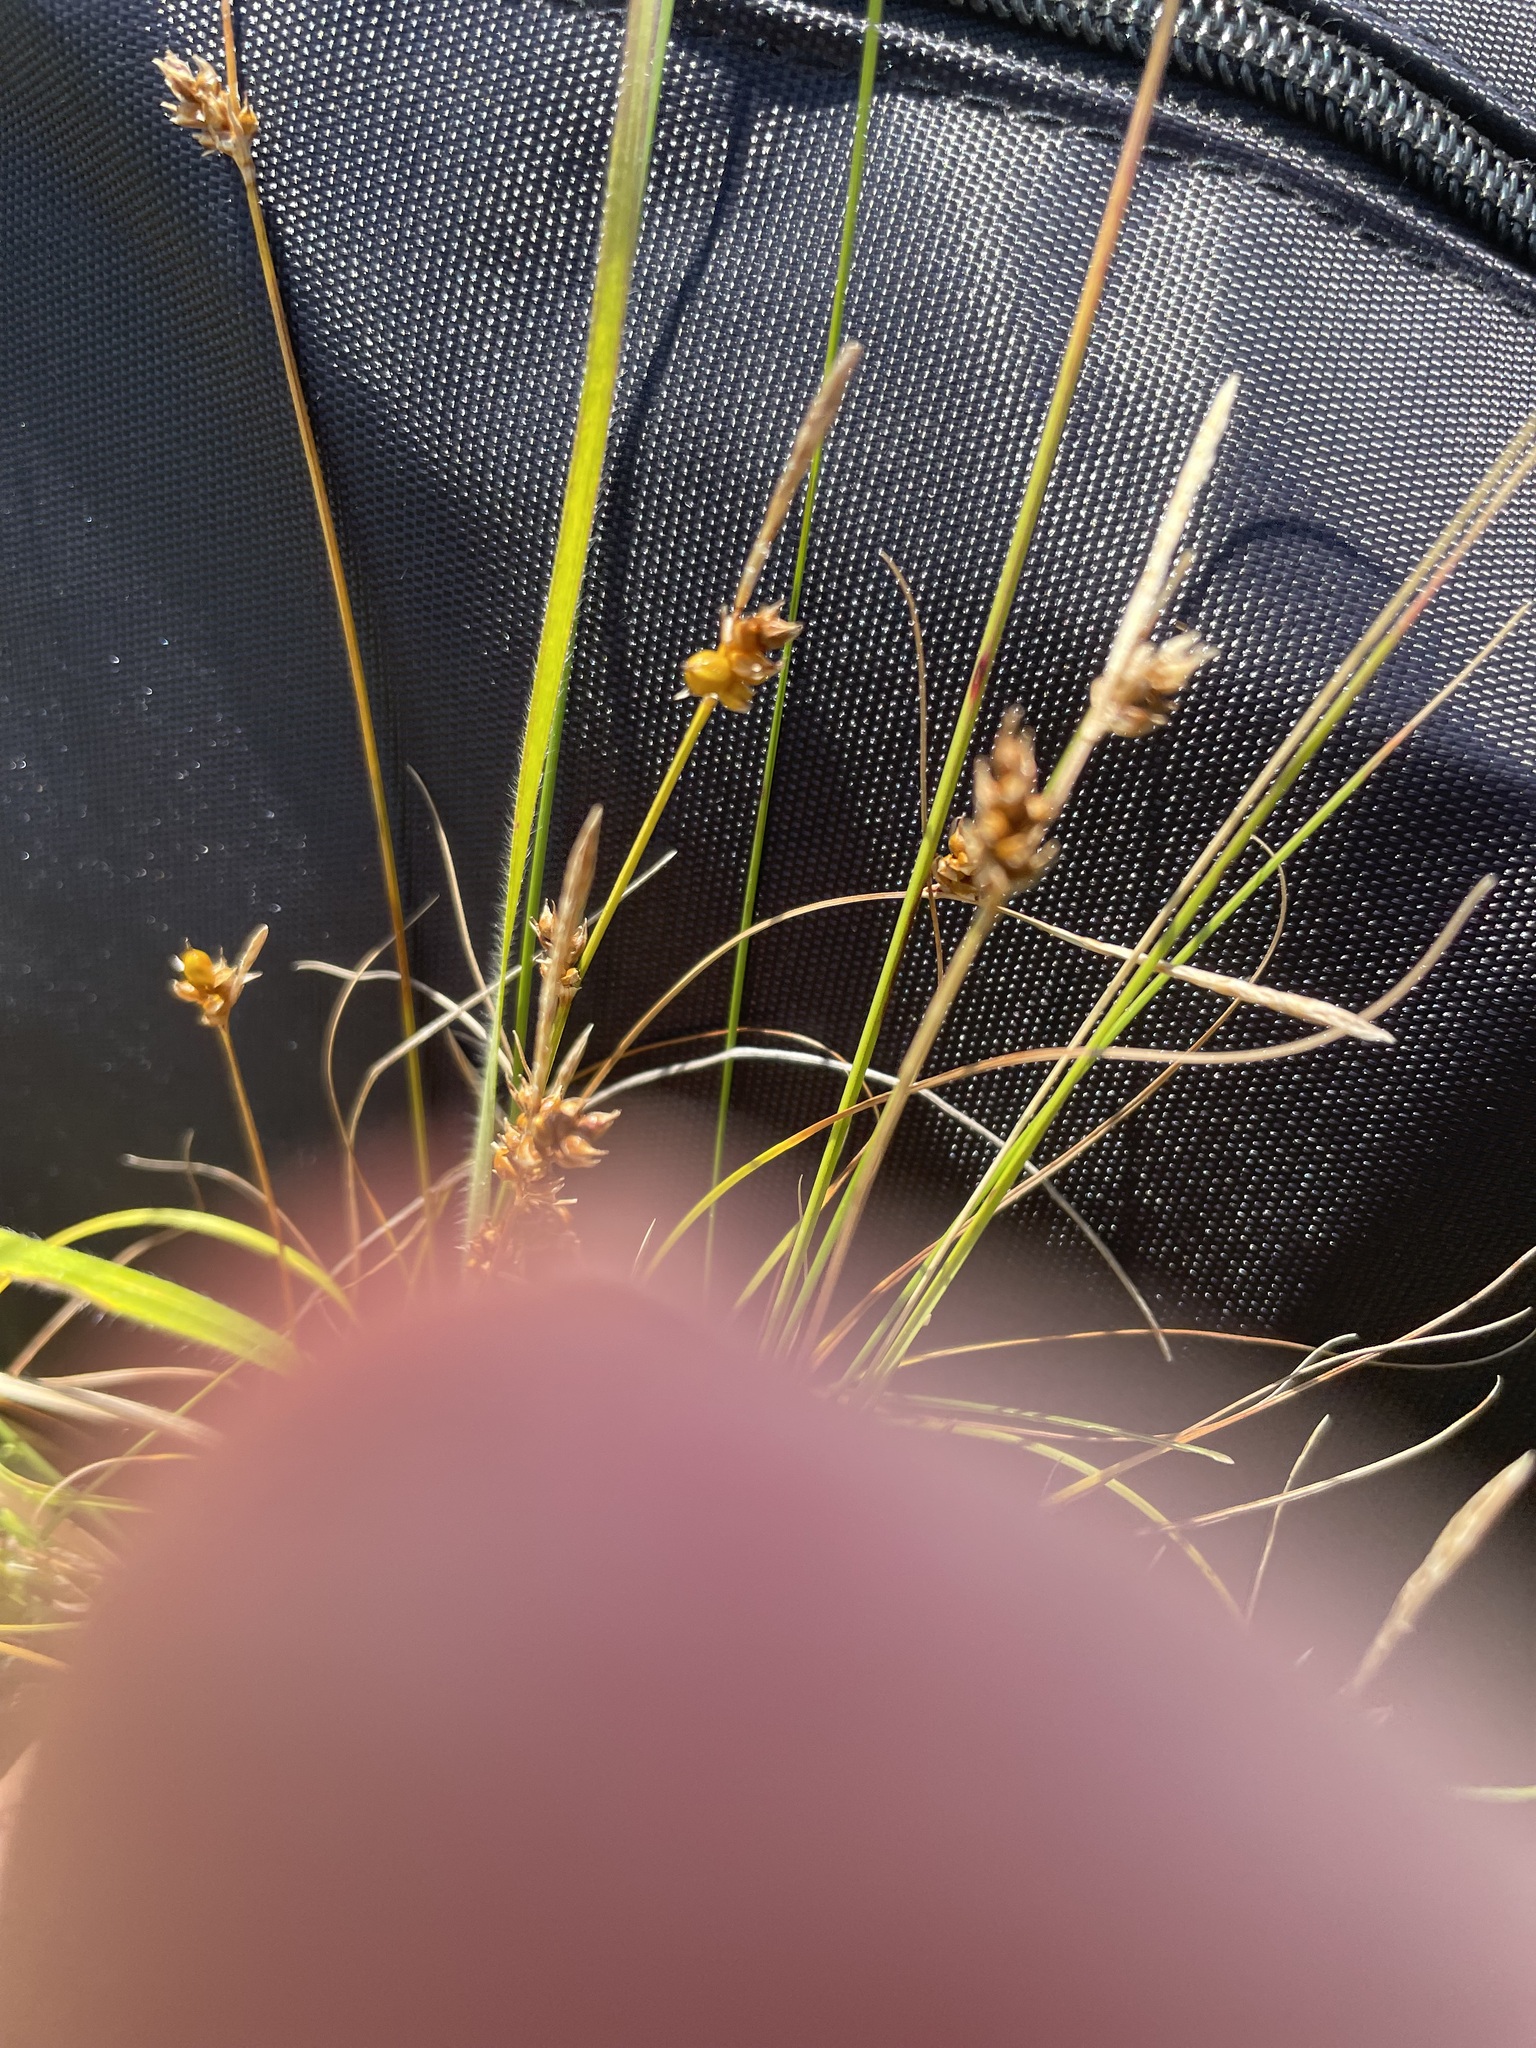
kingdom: Plantae
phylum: Tracheophyta
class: Liliopsida
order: Poales
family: Cyperaceae
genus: Carex
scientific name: Carex supina
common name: Lying-back sedge
